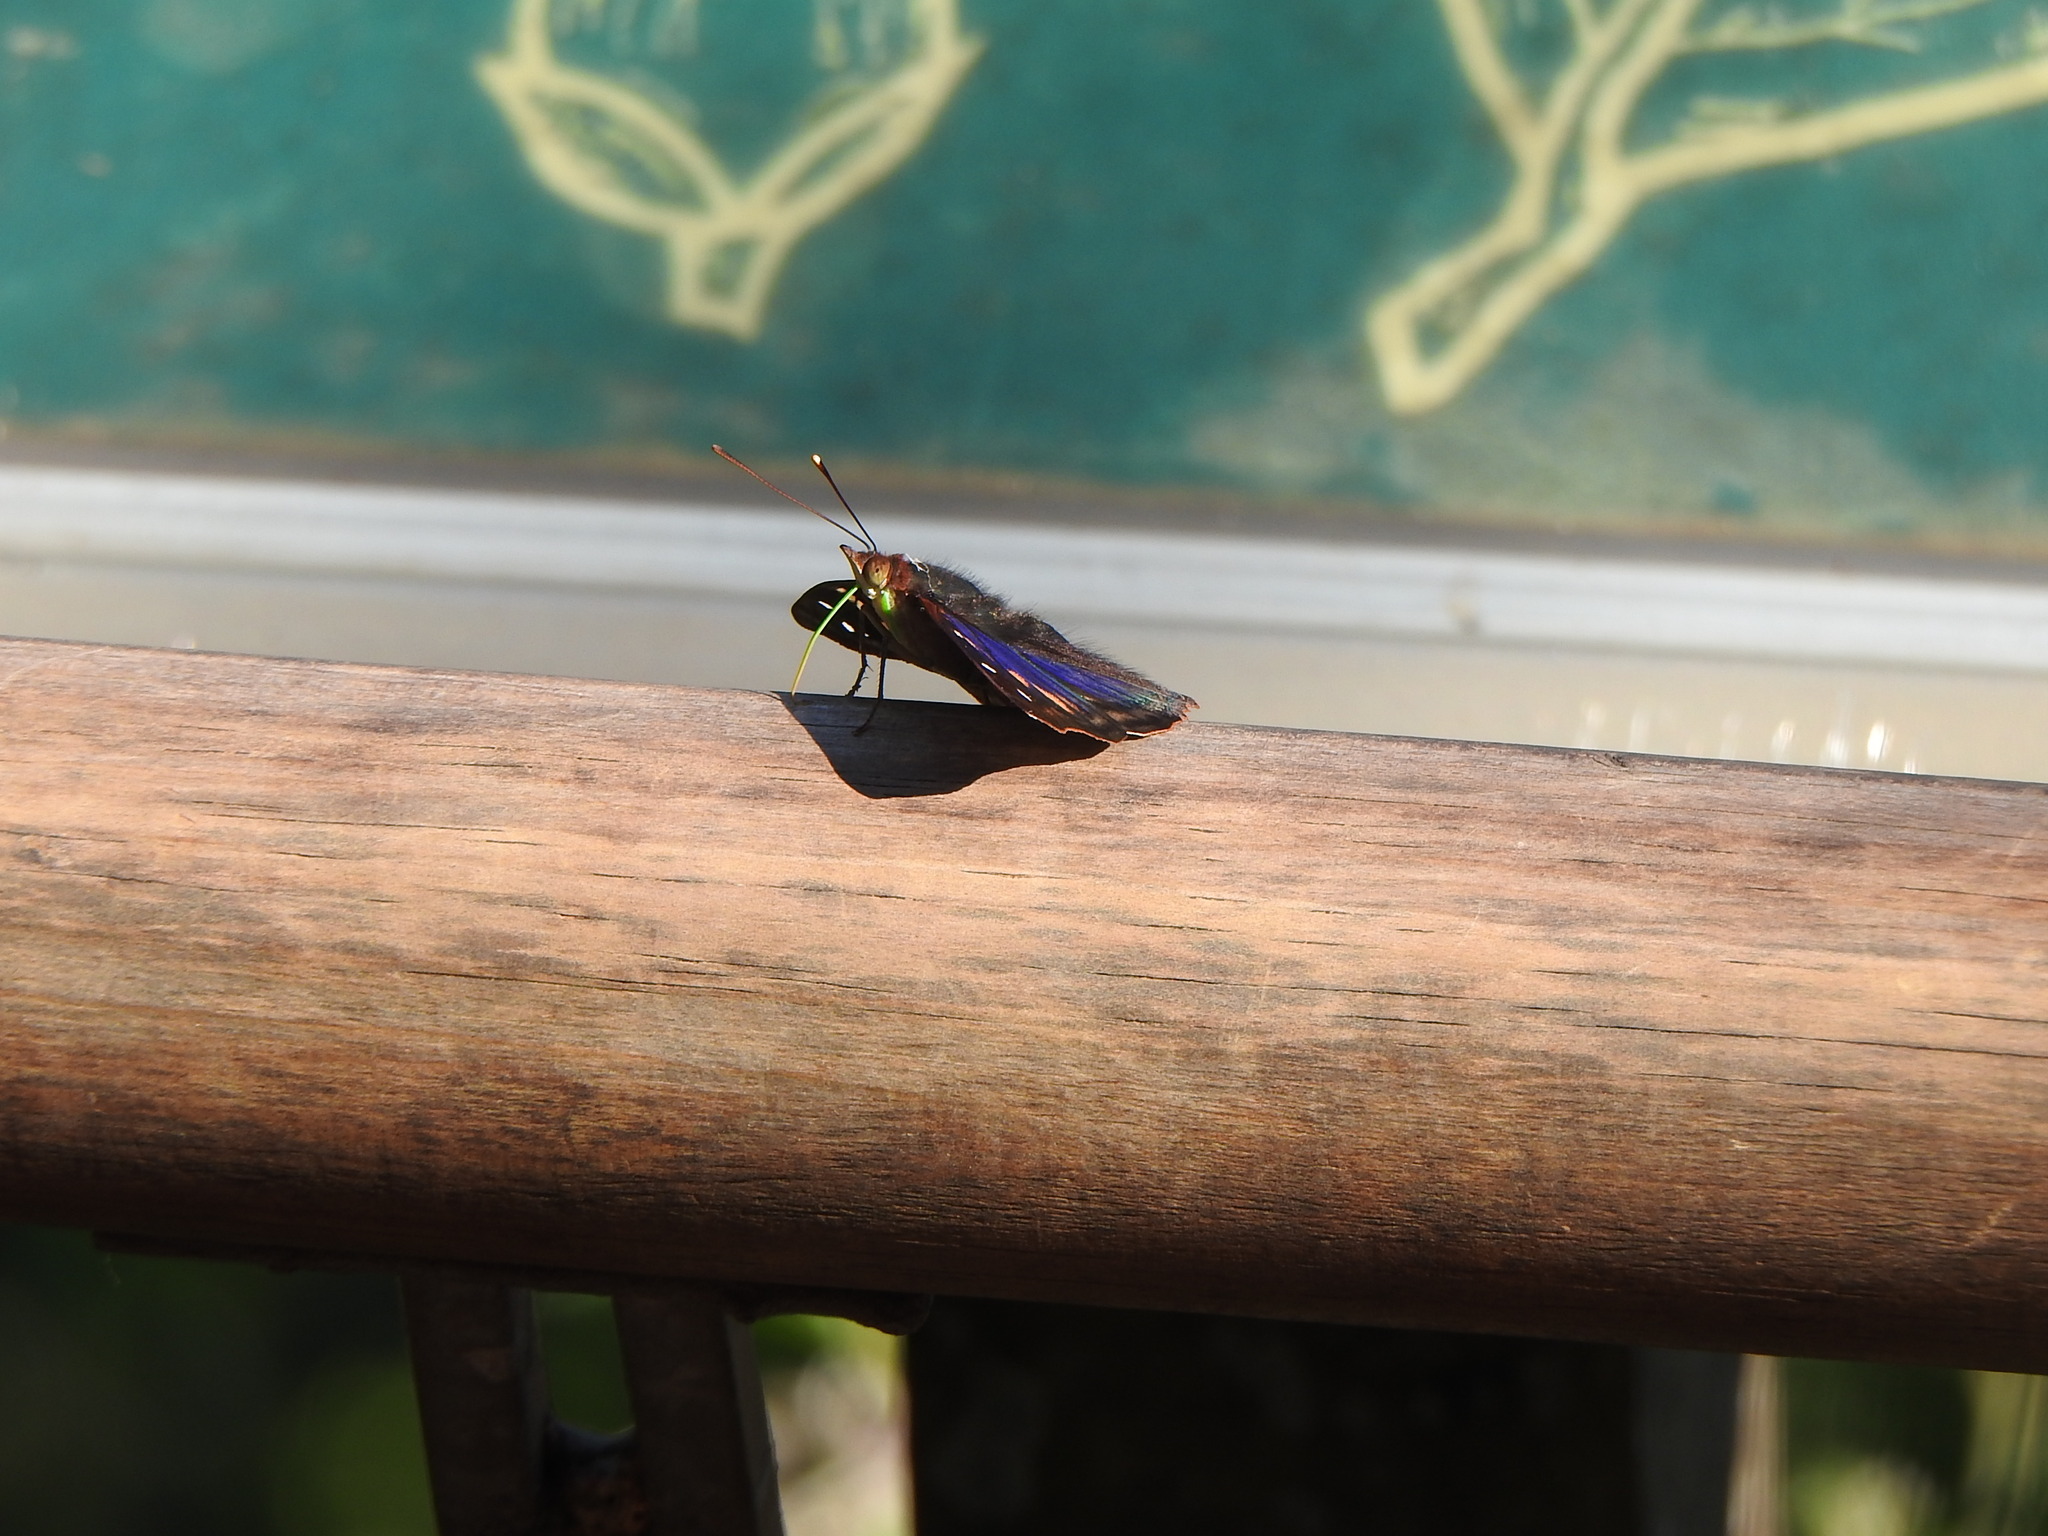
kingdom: Animalia
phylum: Arthropoda
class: Insecta
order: Lepidoptera
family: Nymphalidae
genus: Doxocopa
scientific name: Doxocopa agathina
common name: Agathina emperor
